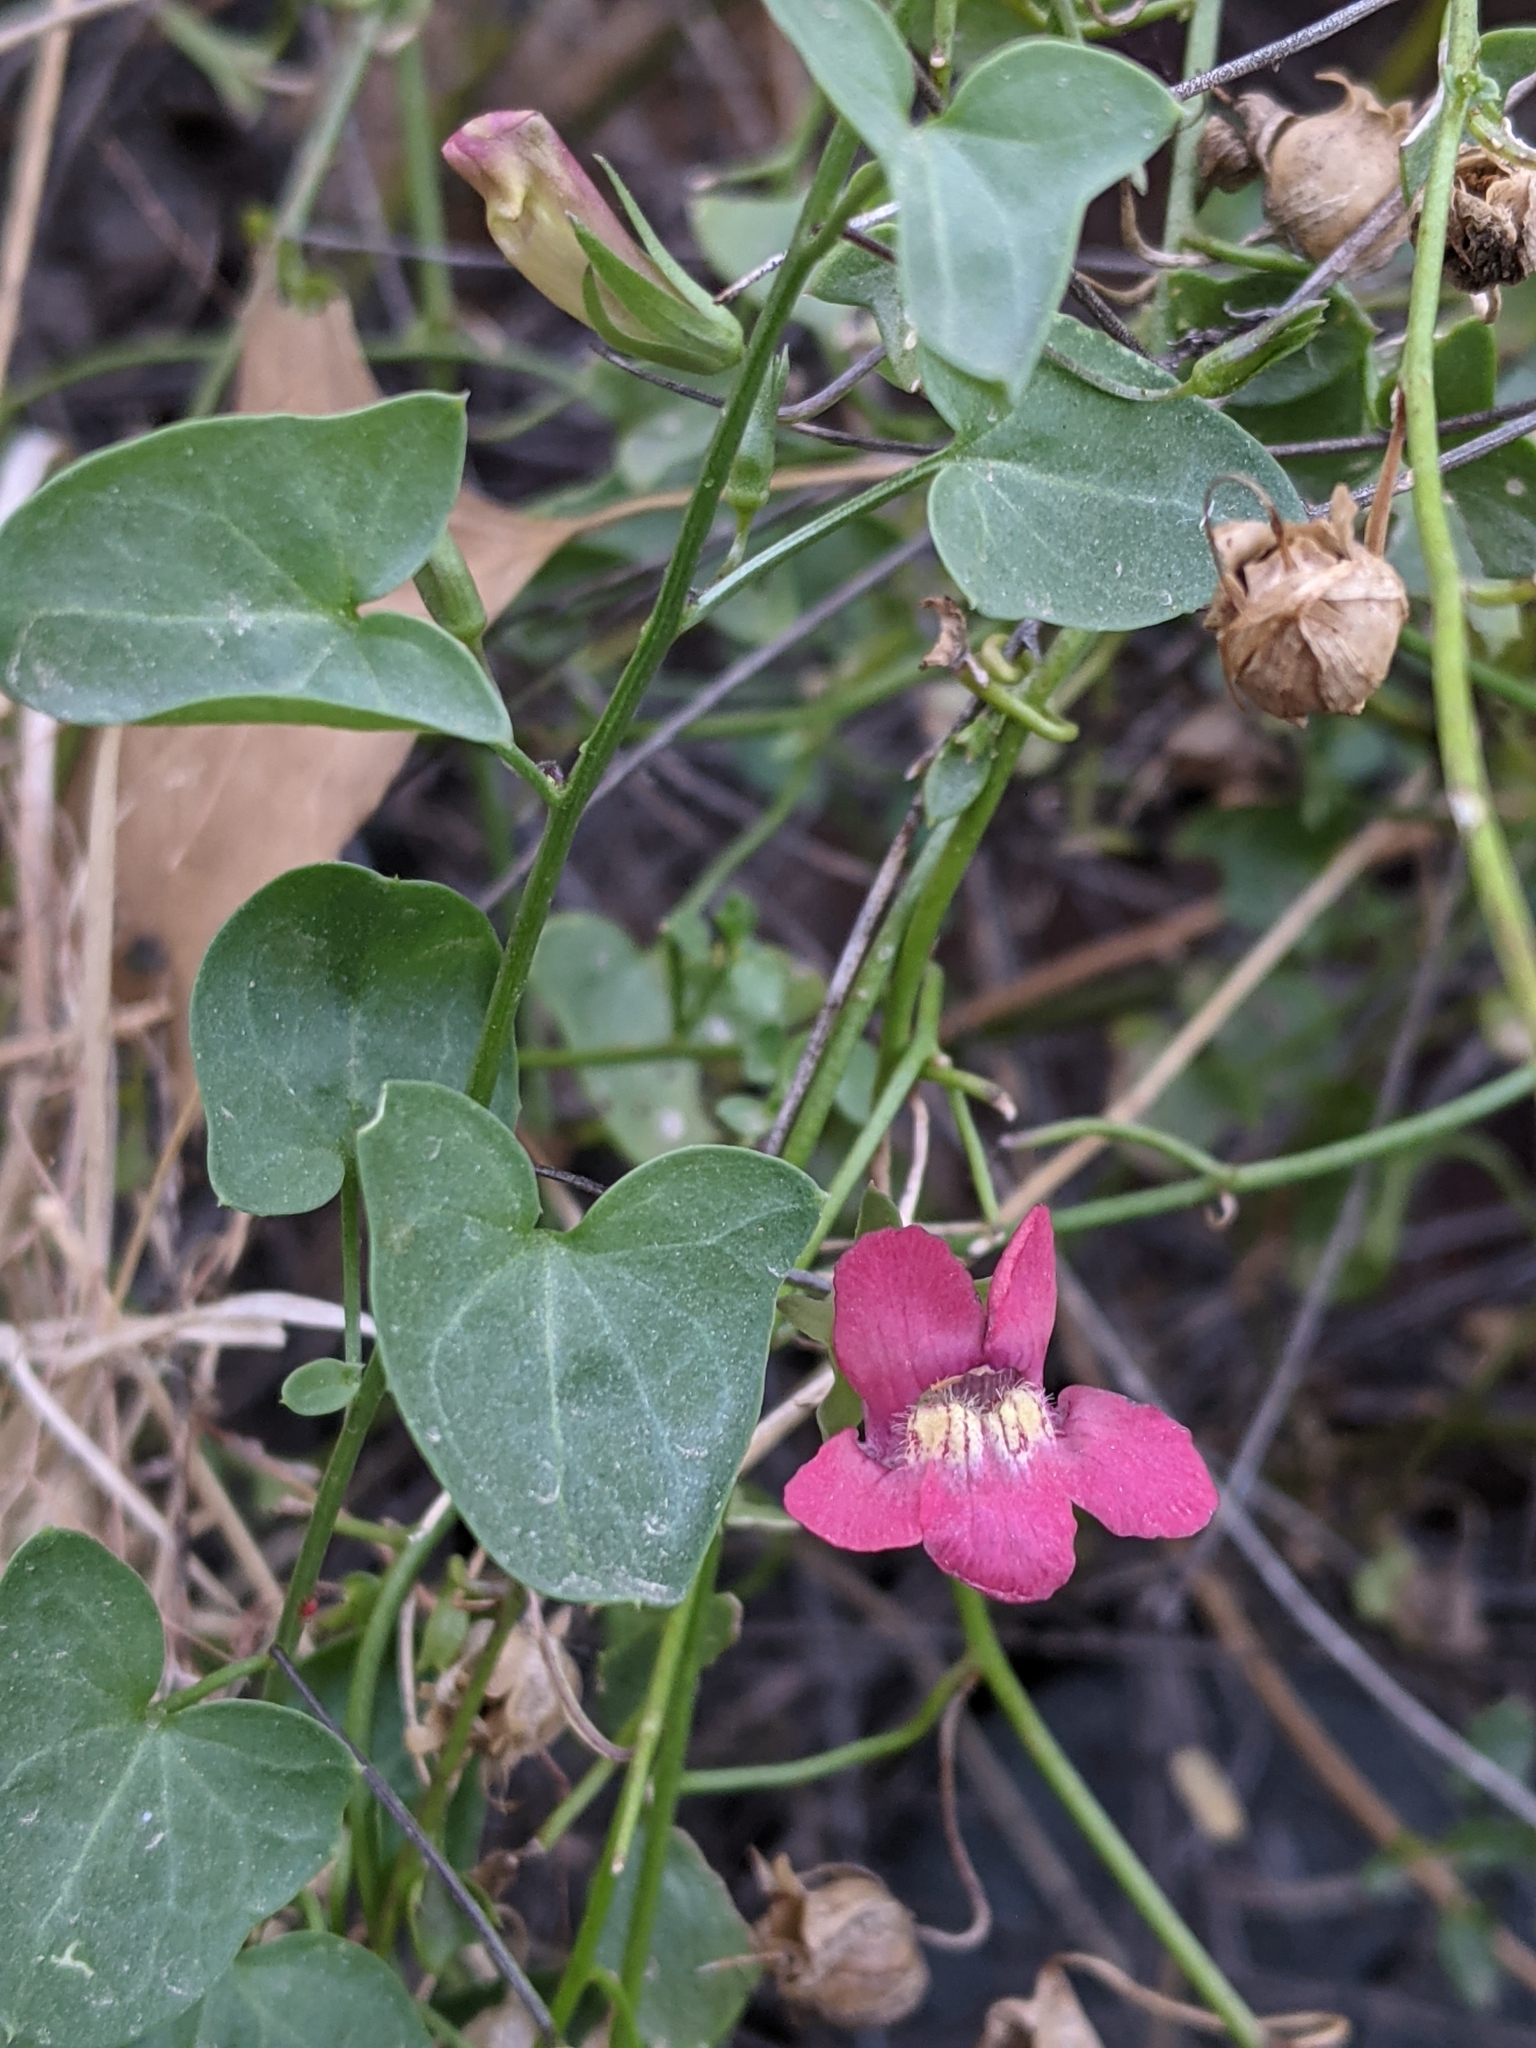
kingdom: Plantae
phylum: Tracheophyta
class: Magnoliopsida
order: Lamiales
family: Plantaginaceae
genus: Maurandella
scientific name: Maurandella antirrhiniflora
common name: Violet twining-snapdragon
